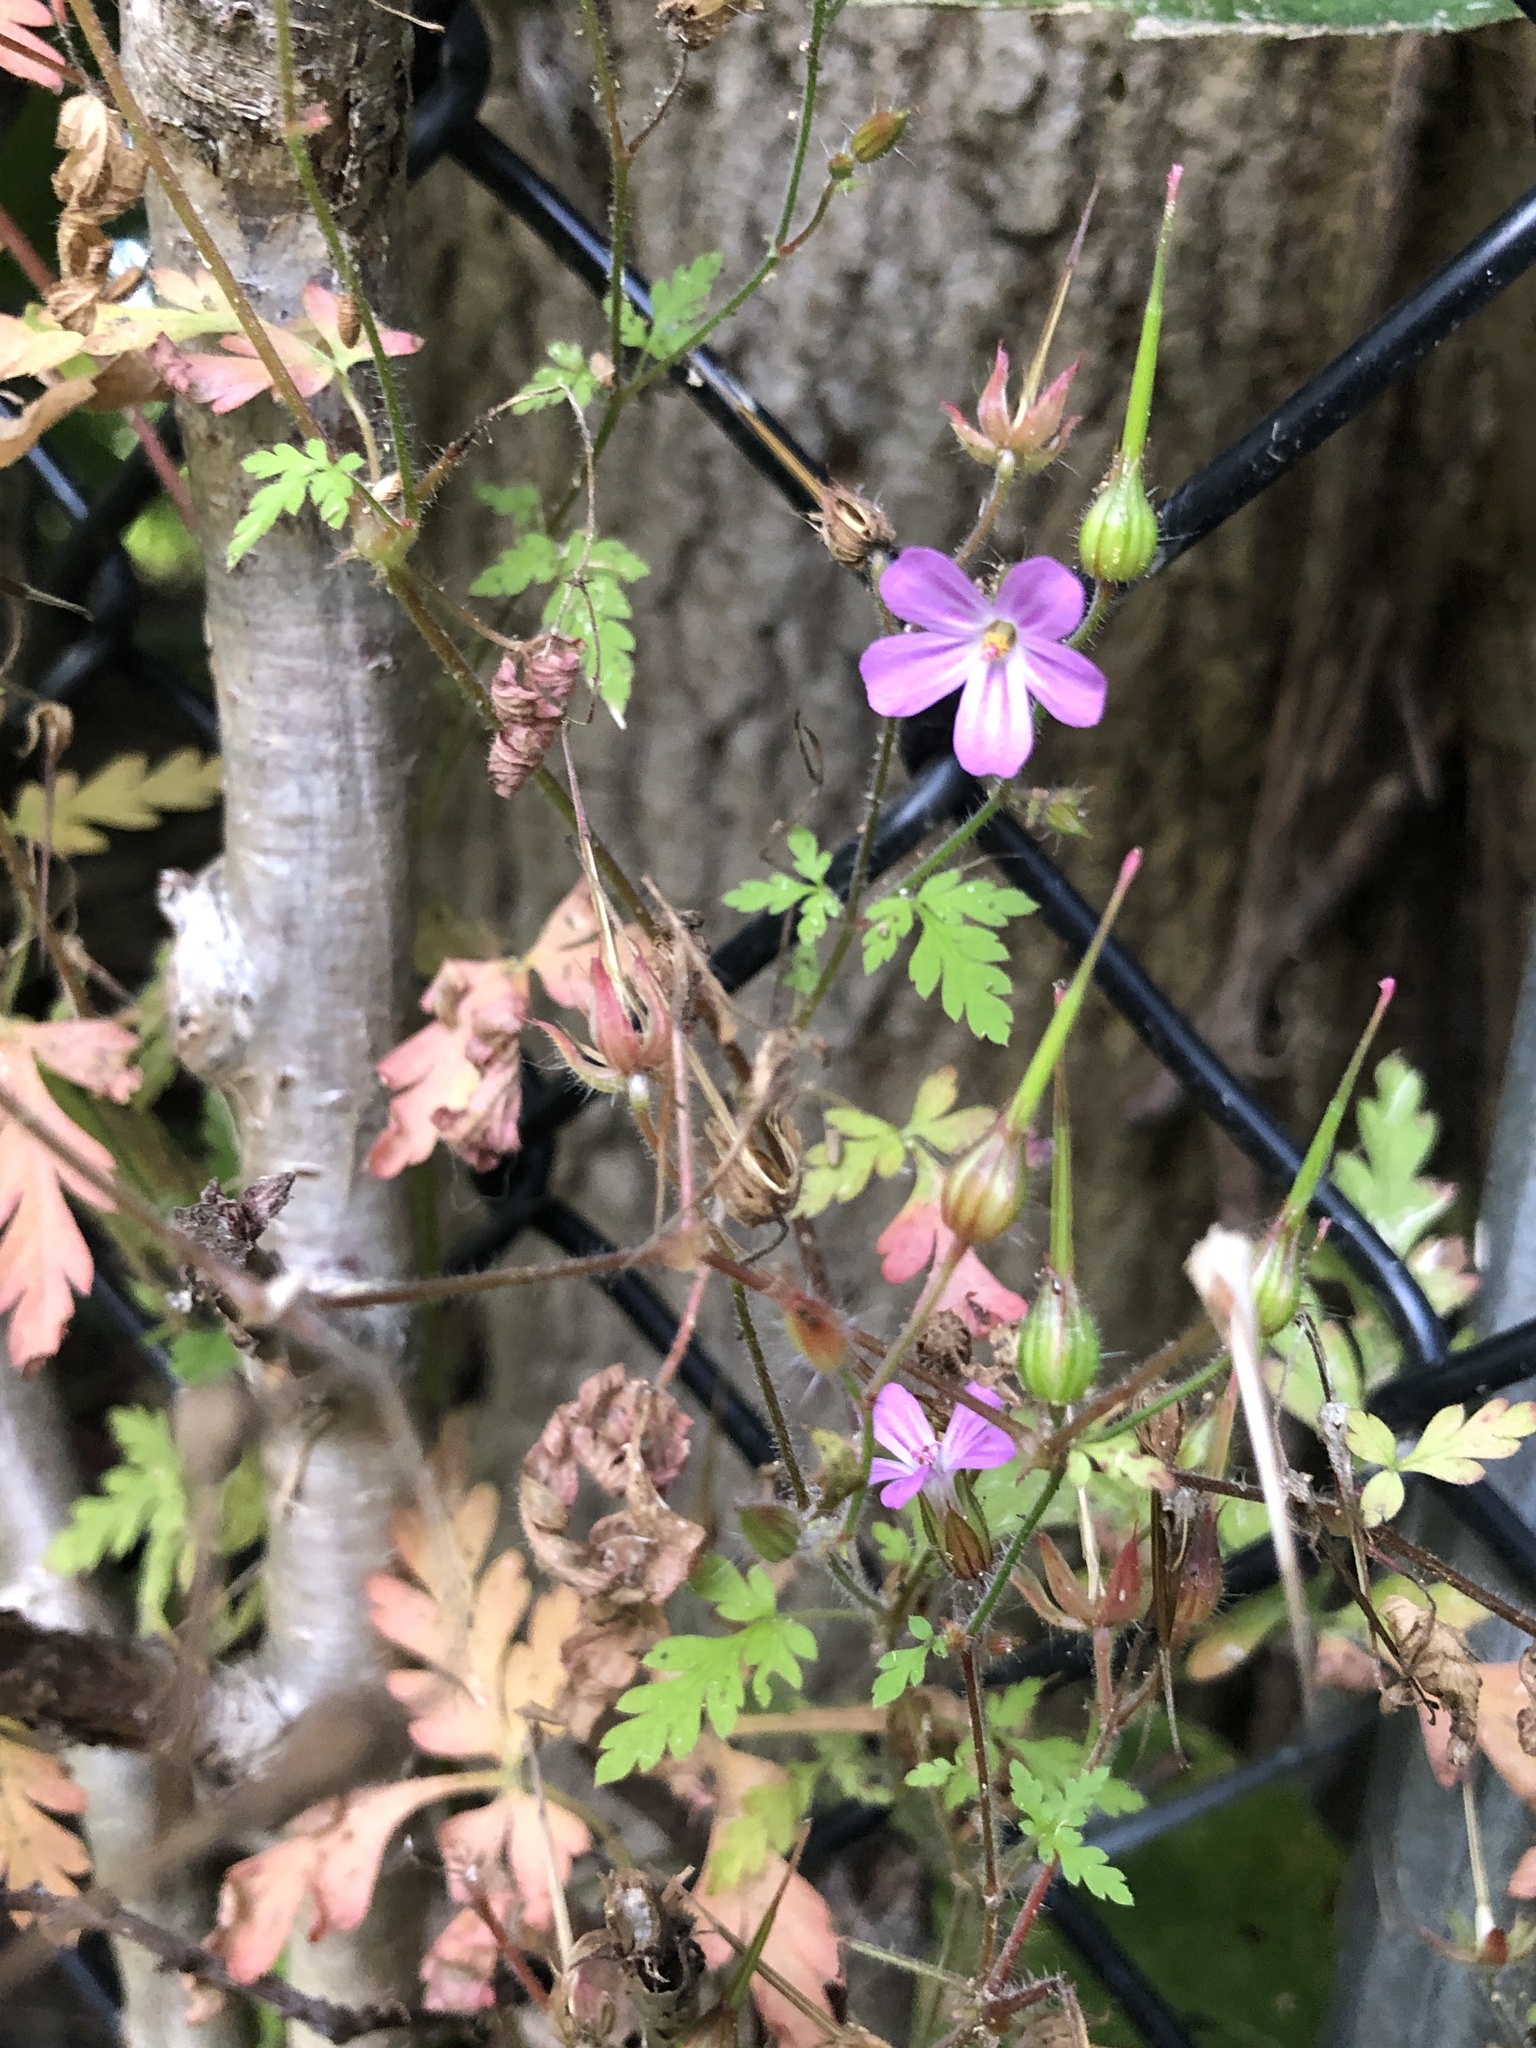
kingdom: Plantae
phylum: Tracheophyta
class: Magnoliopsida
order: Geraniales
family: Geraniaceae
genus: Geranium
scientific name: Geranium robertianum
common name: Herb-robert
